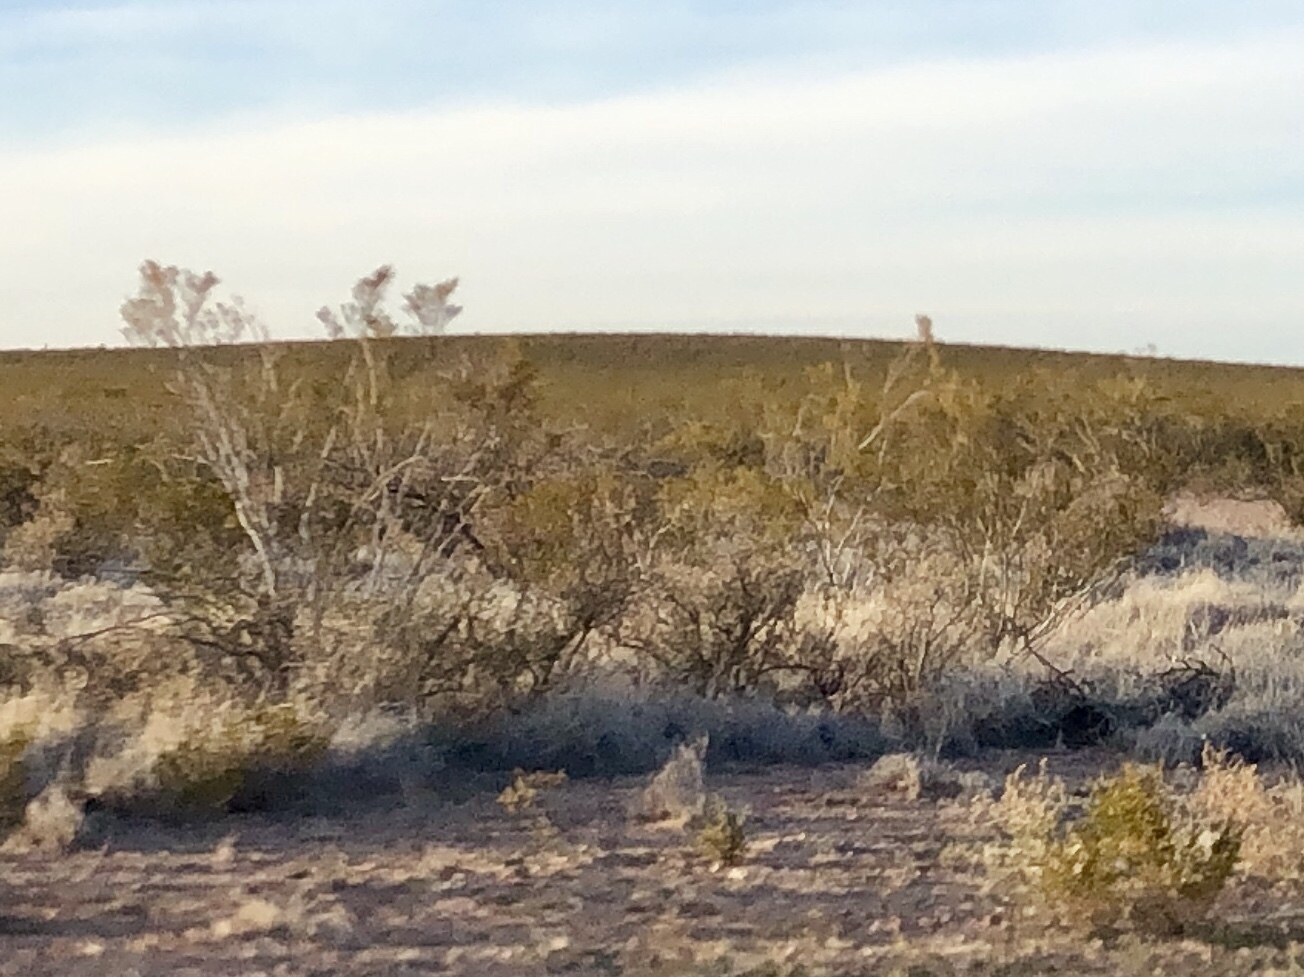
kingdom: Plantae
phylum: Tracheophyta
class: Magnoliopsida
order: Zygophyllales
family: Zygophyllaceae
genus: Larrea
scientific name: Larrea tridentata
